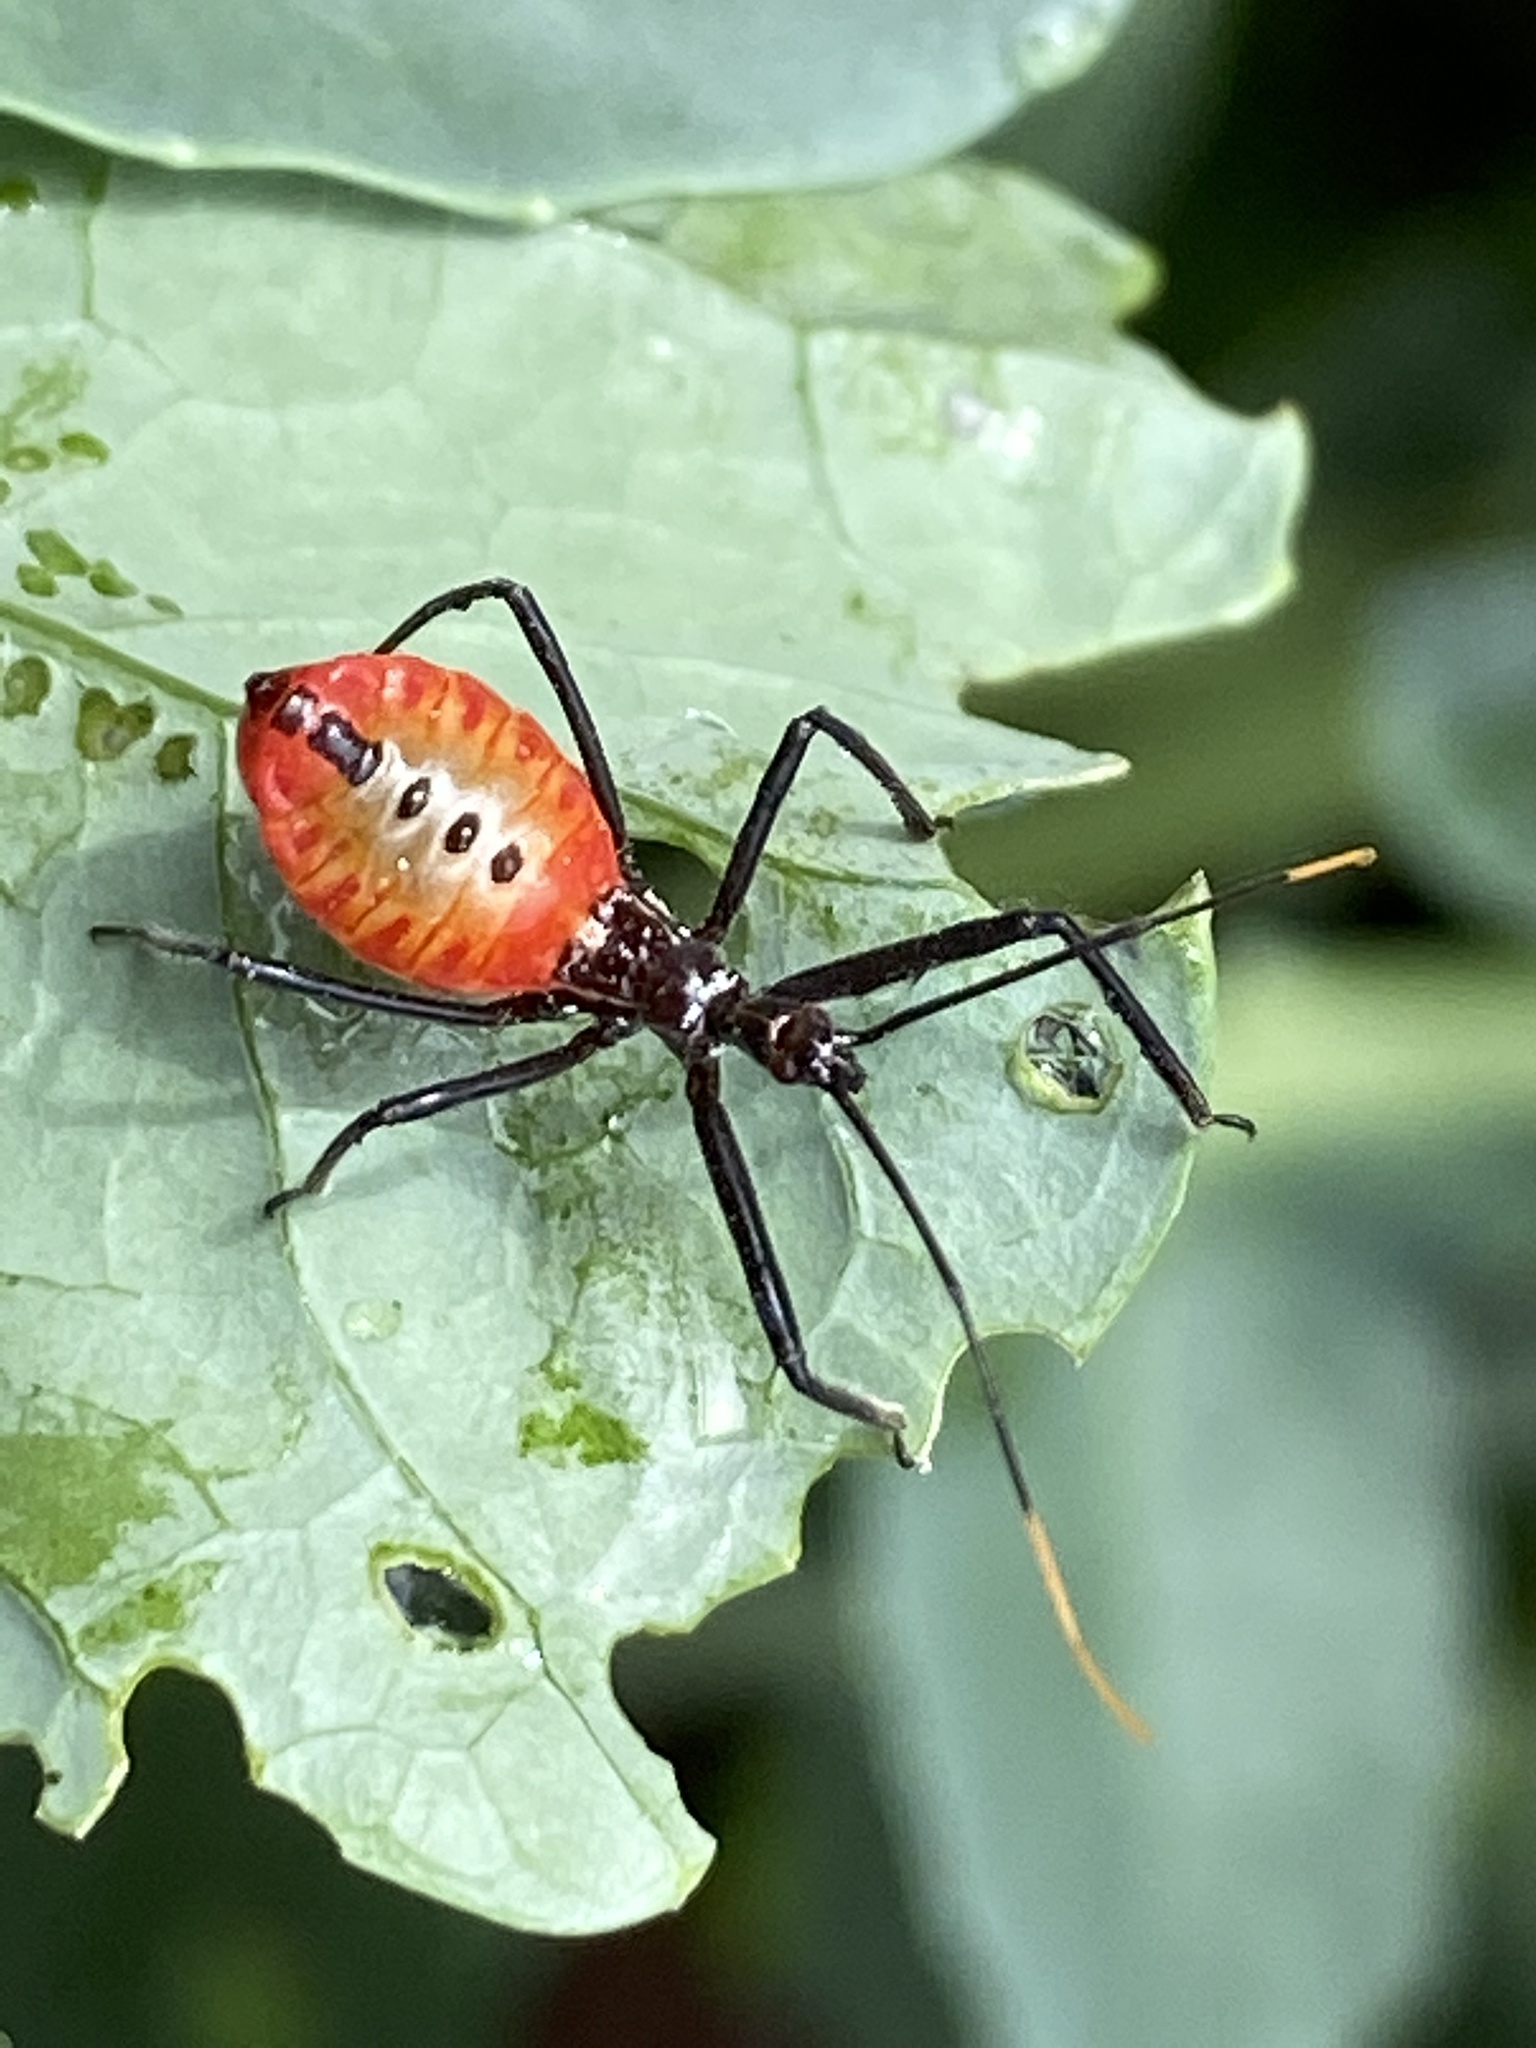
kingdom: Animalia
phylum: Arthropoda
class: Insecta
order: Hemiptera
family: Reduviidae
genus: Arilus
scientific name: Arilus cristatus
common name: North american wheel bug
